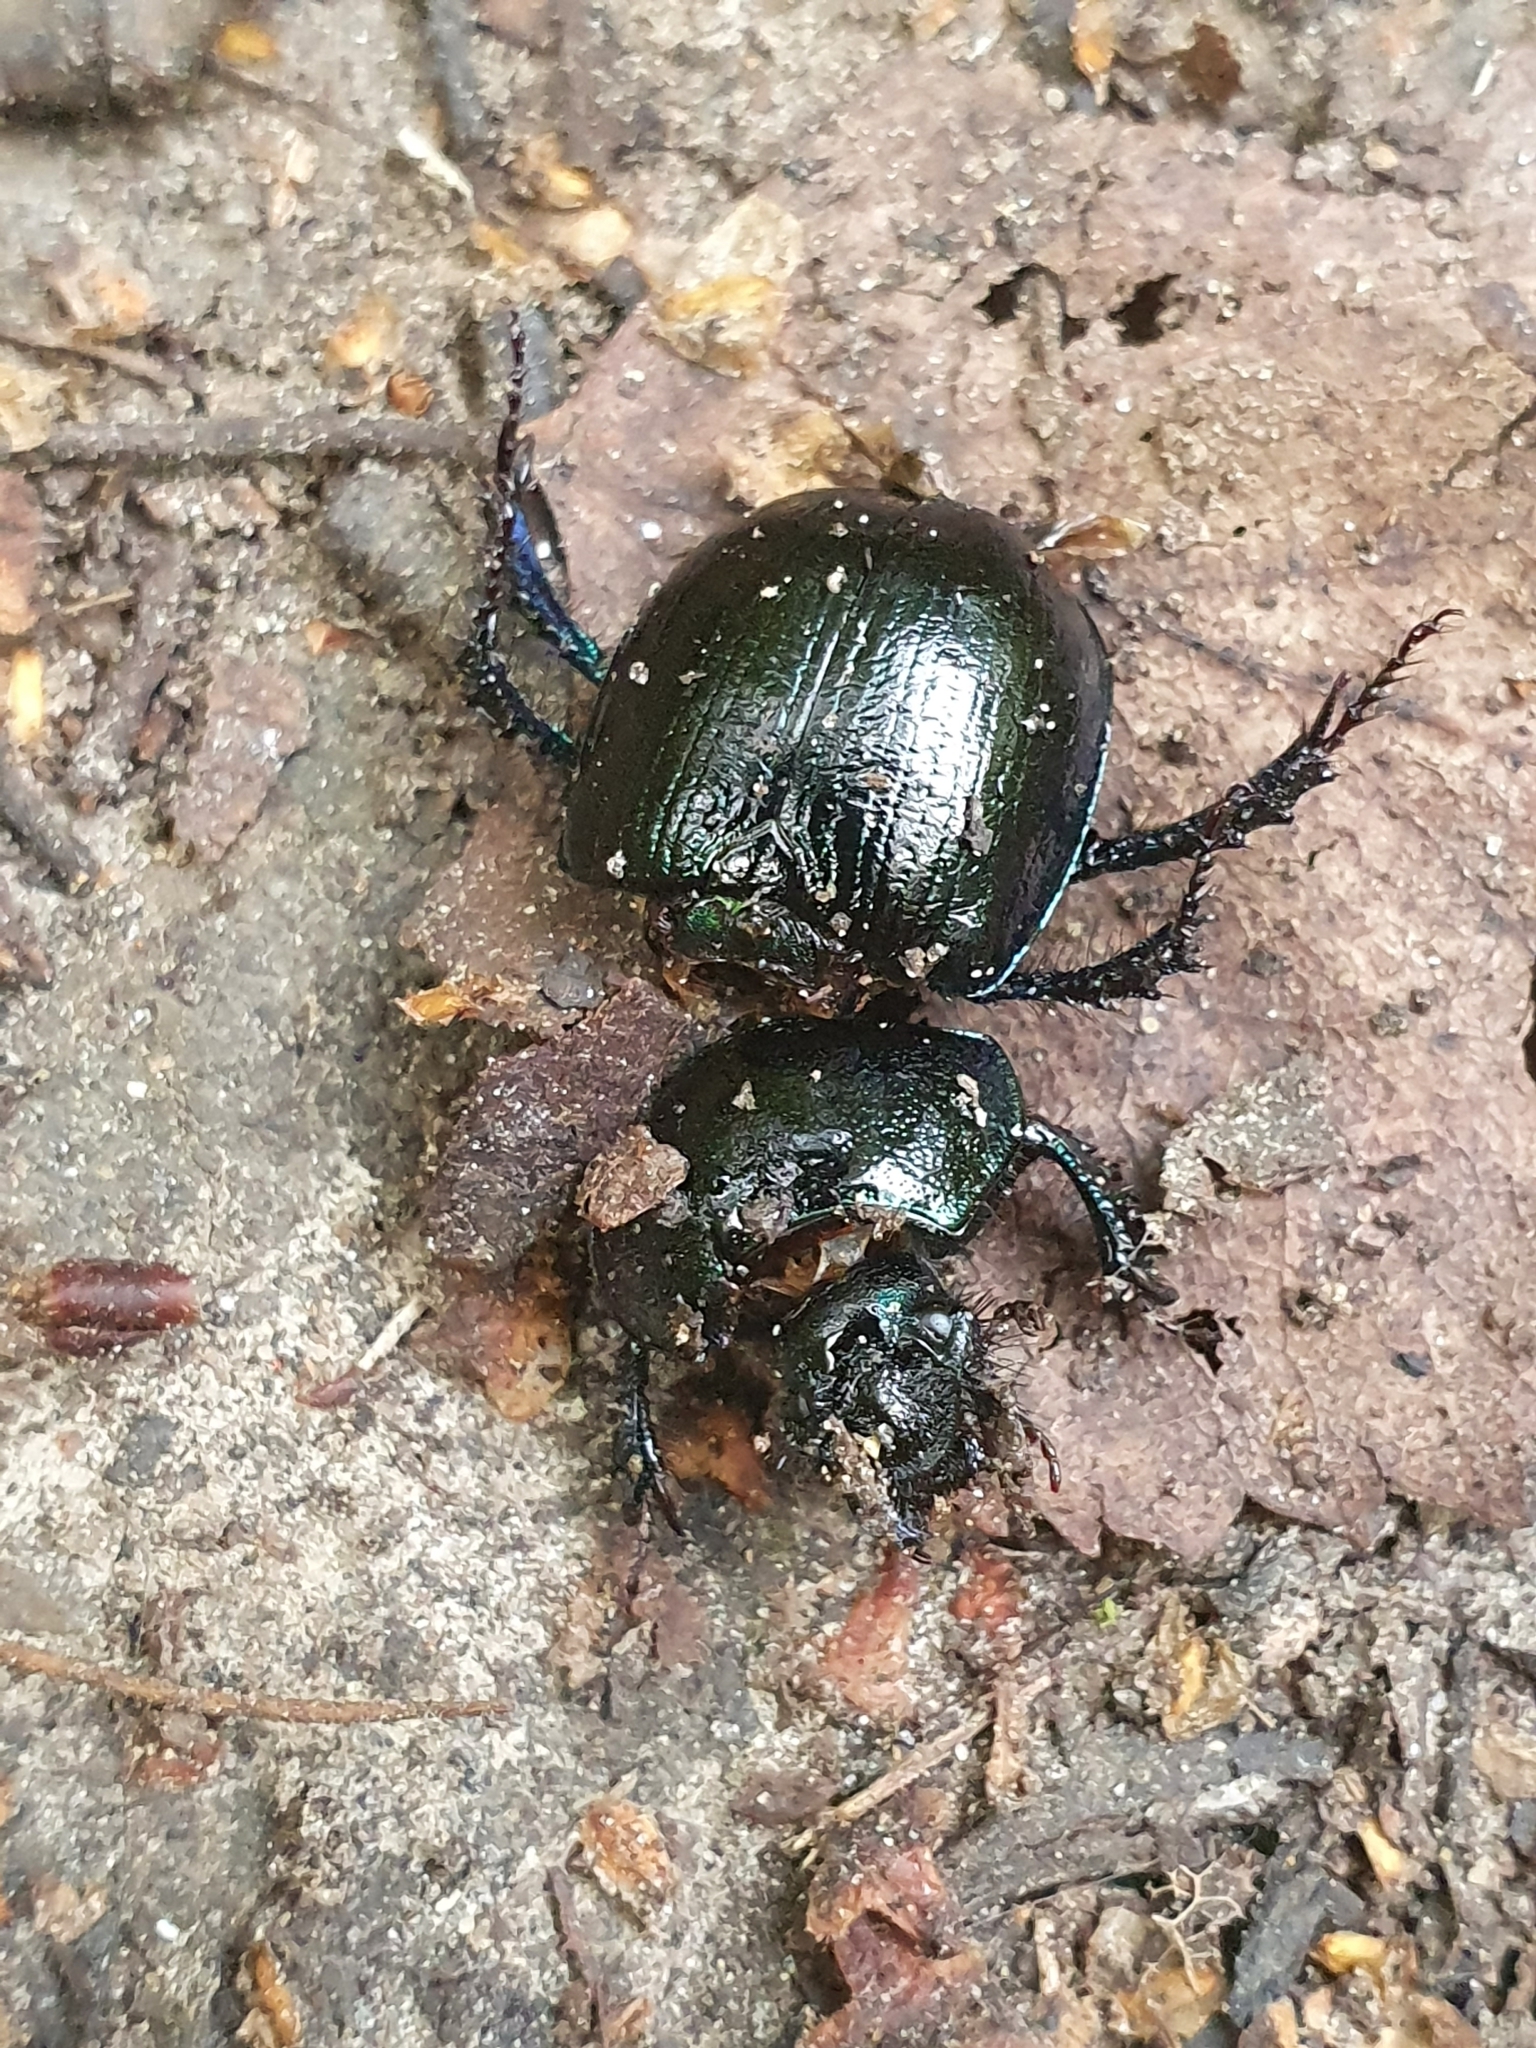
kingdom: Animalia
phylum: Arthropoda
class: Insecta
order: Coleoptera
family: Geotrupidae
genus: Anoplotrupes
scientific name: Anoplotrupes stercorosus
